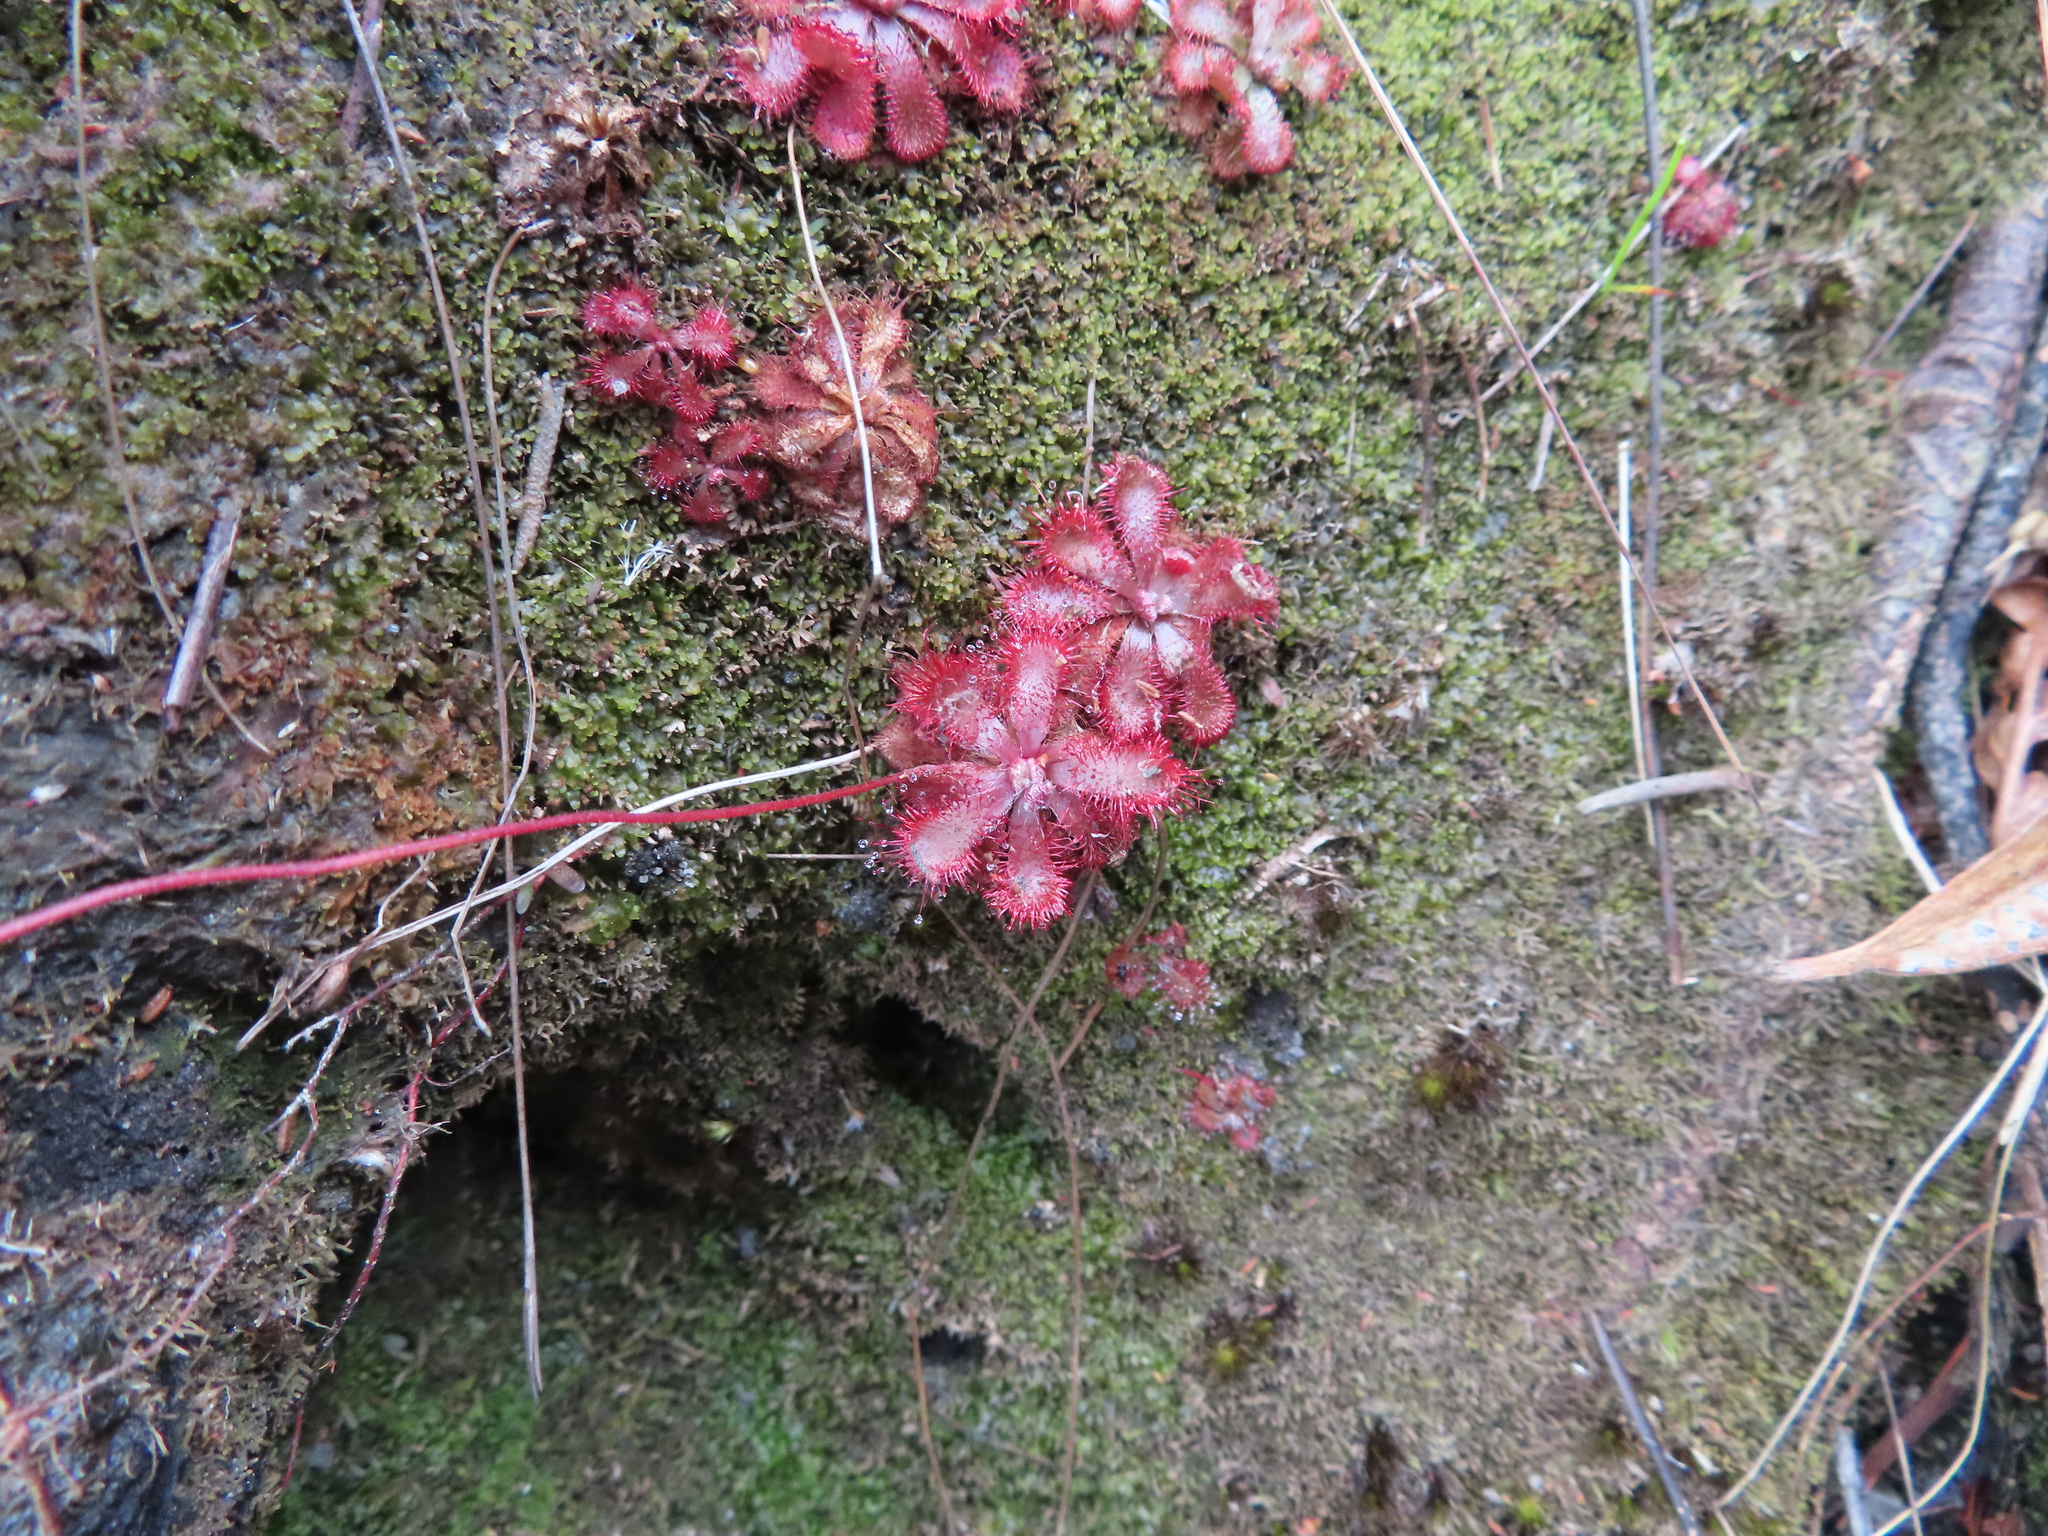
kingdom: Plantae
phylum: Tracheophyta
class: Magnoliopsida
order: Caryophyllales
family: Droseraceae
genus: Drosera
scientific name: Drosera aliciae
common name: Alice sundew
